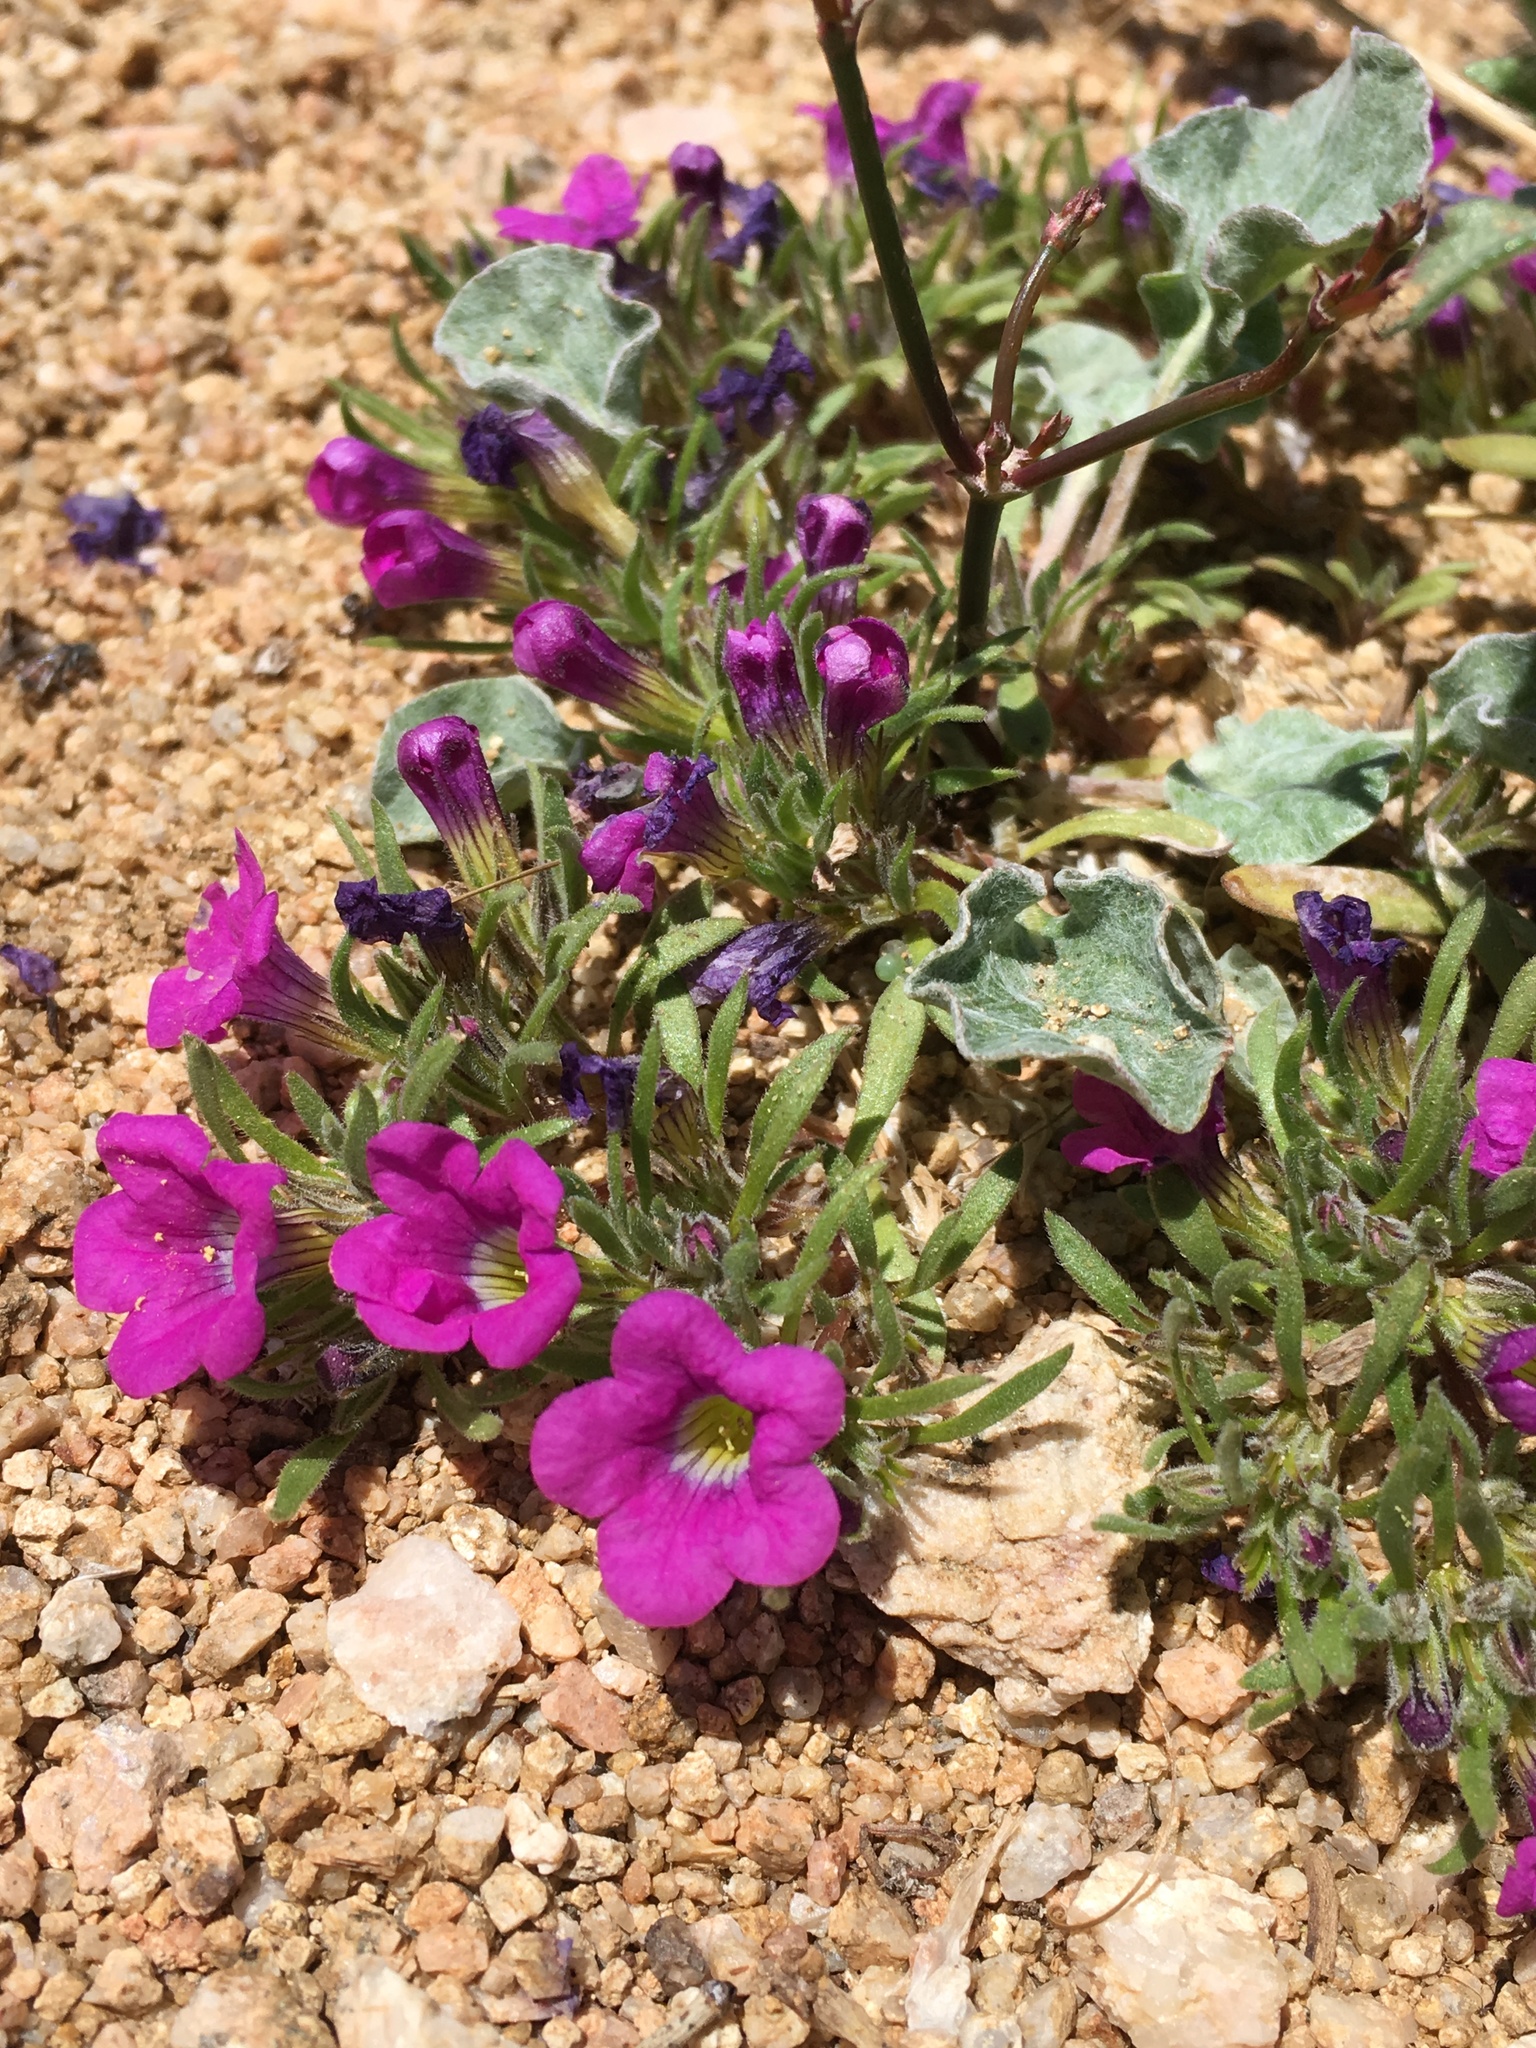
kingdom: Plantae
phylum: Tracheophyta
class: Magnoliopsida
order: Boraginales
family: Namaceae
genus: Nama
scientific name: Nama demissa
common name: Leafy nama
